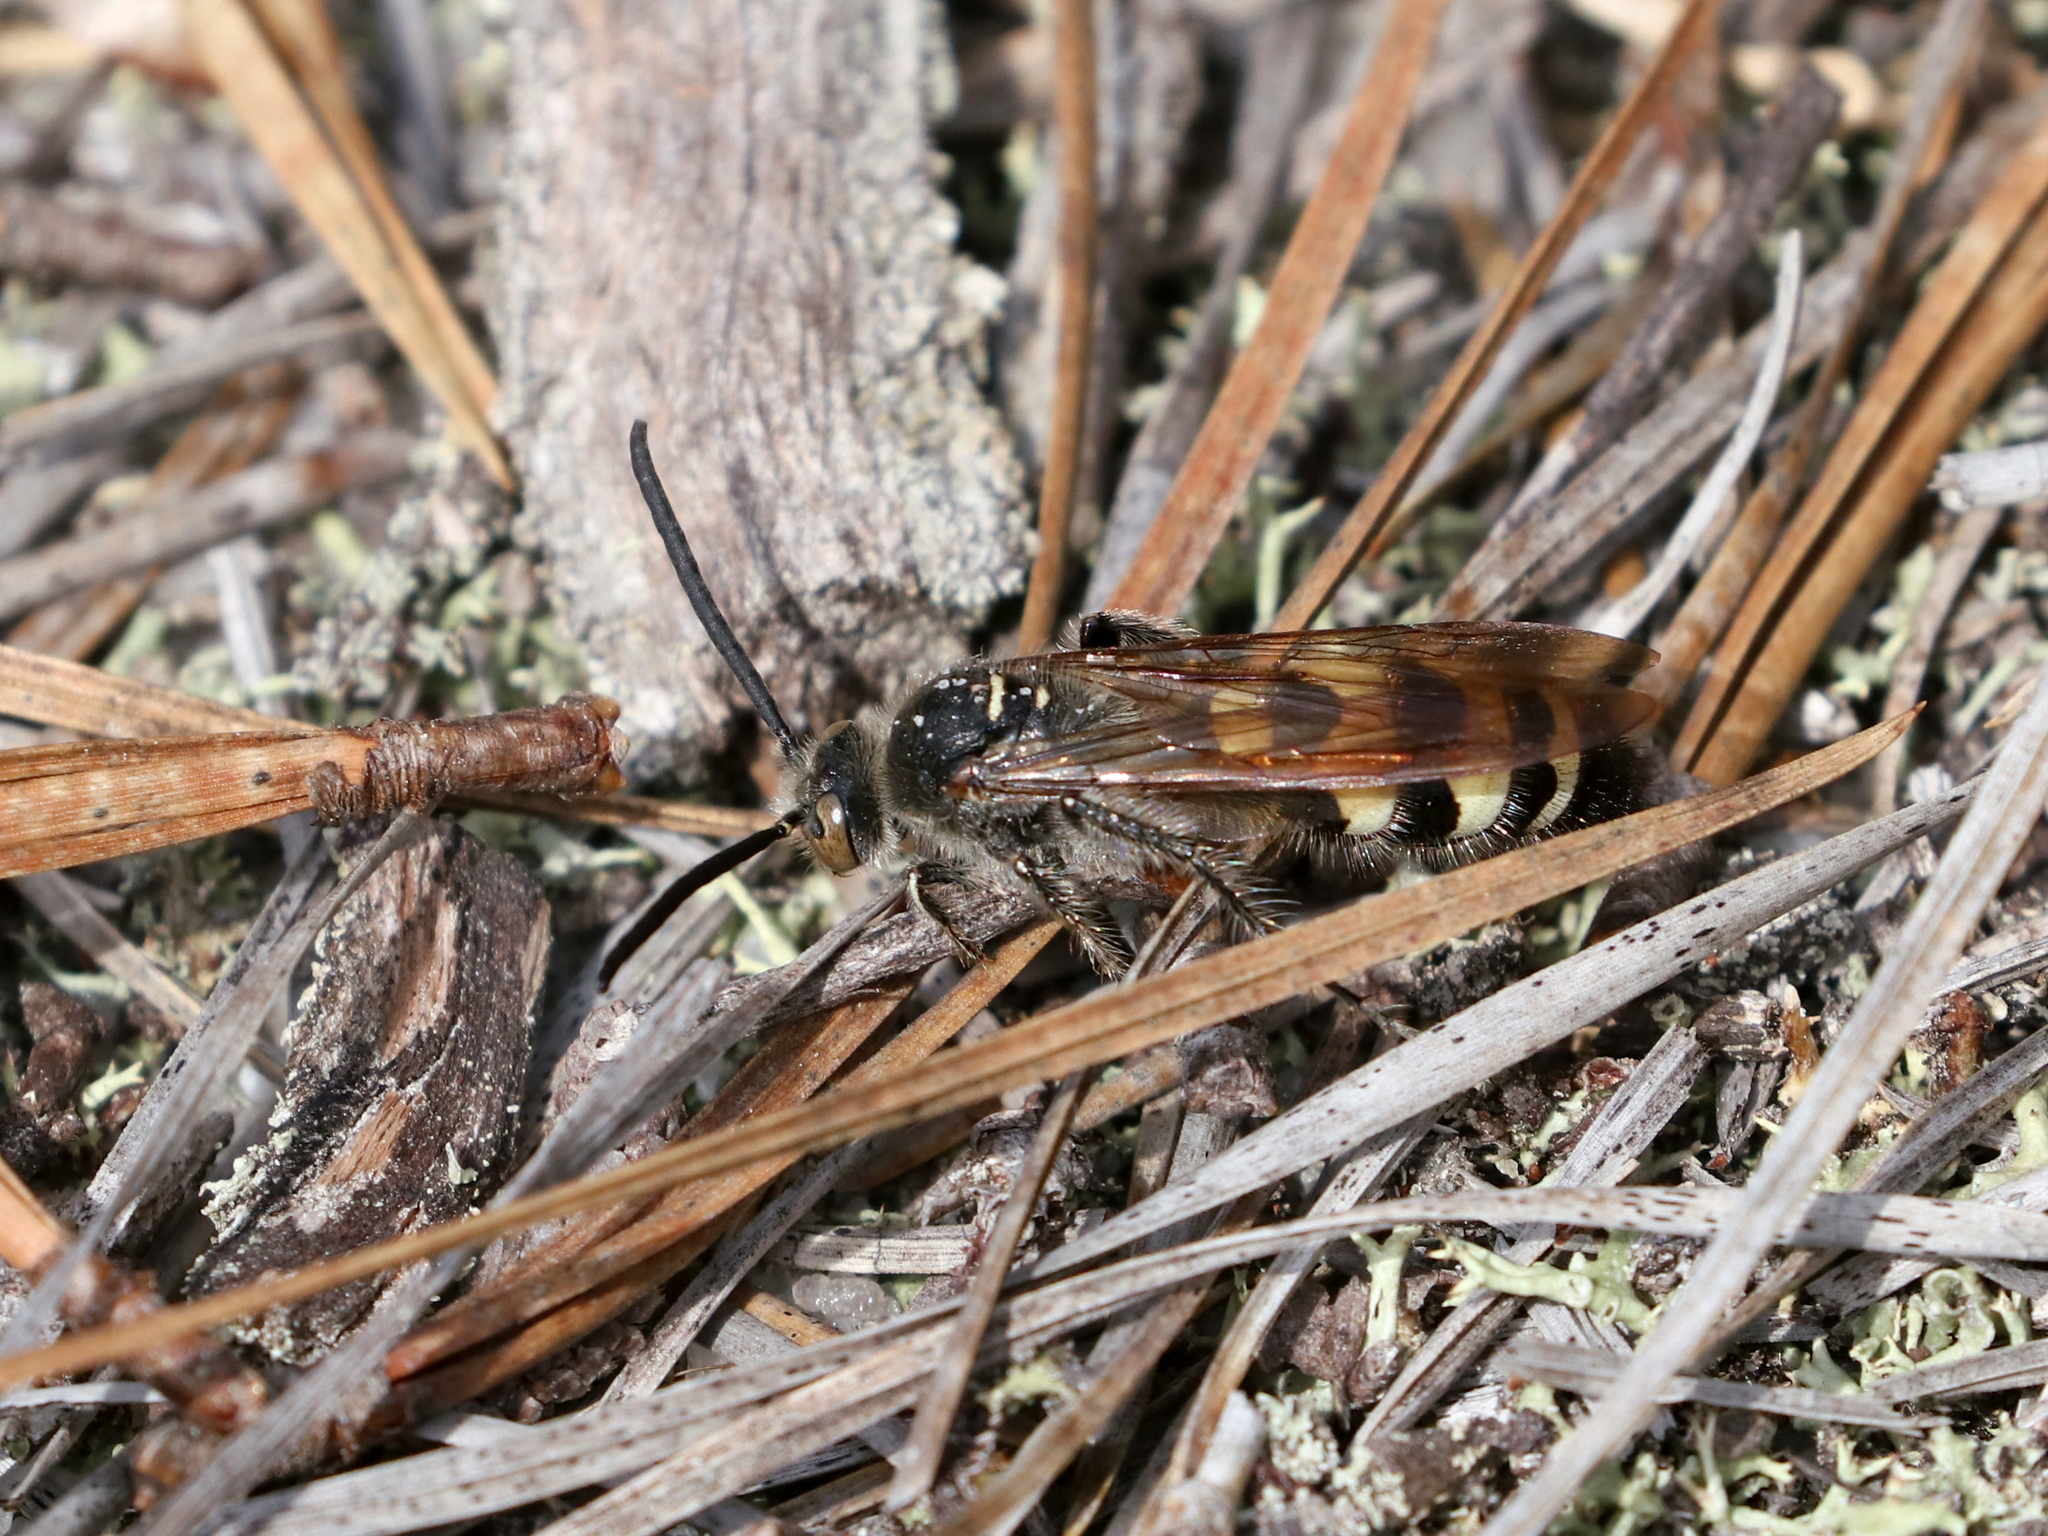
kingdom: Animalia
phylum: Arthropoda
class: Insecta
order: Hymenoptera
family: Scoliidae
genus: Dielis
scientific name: Dielis
